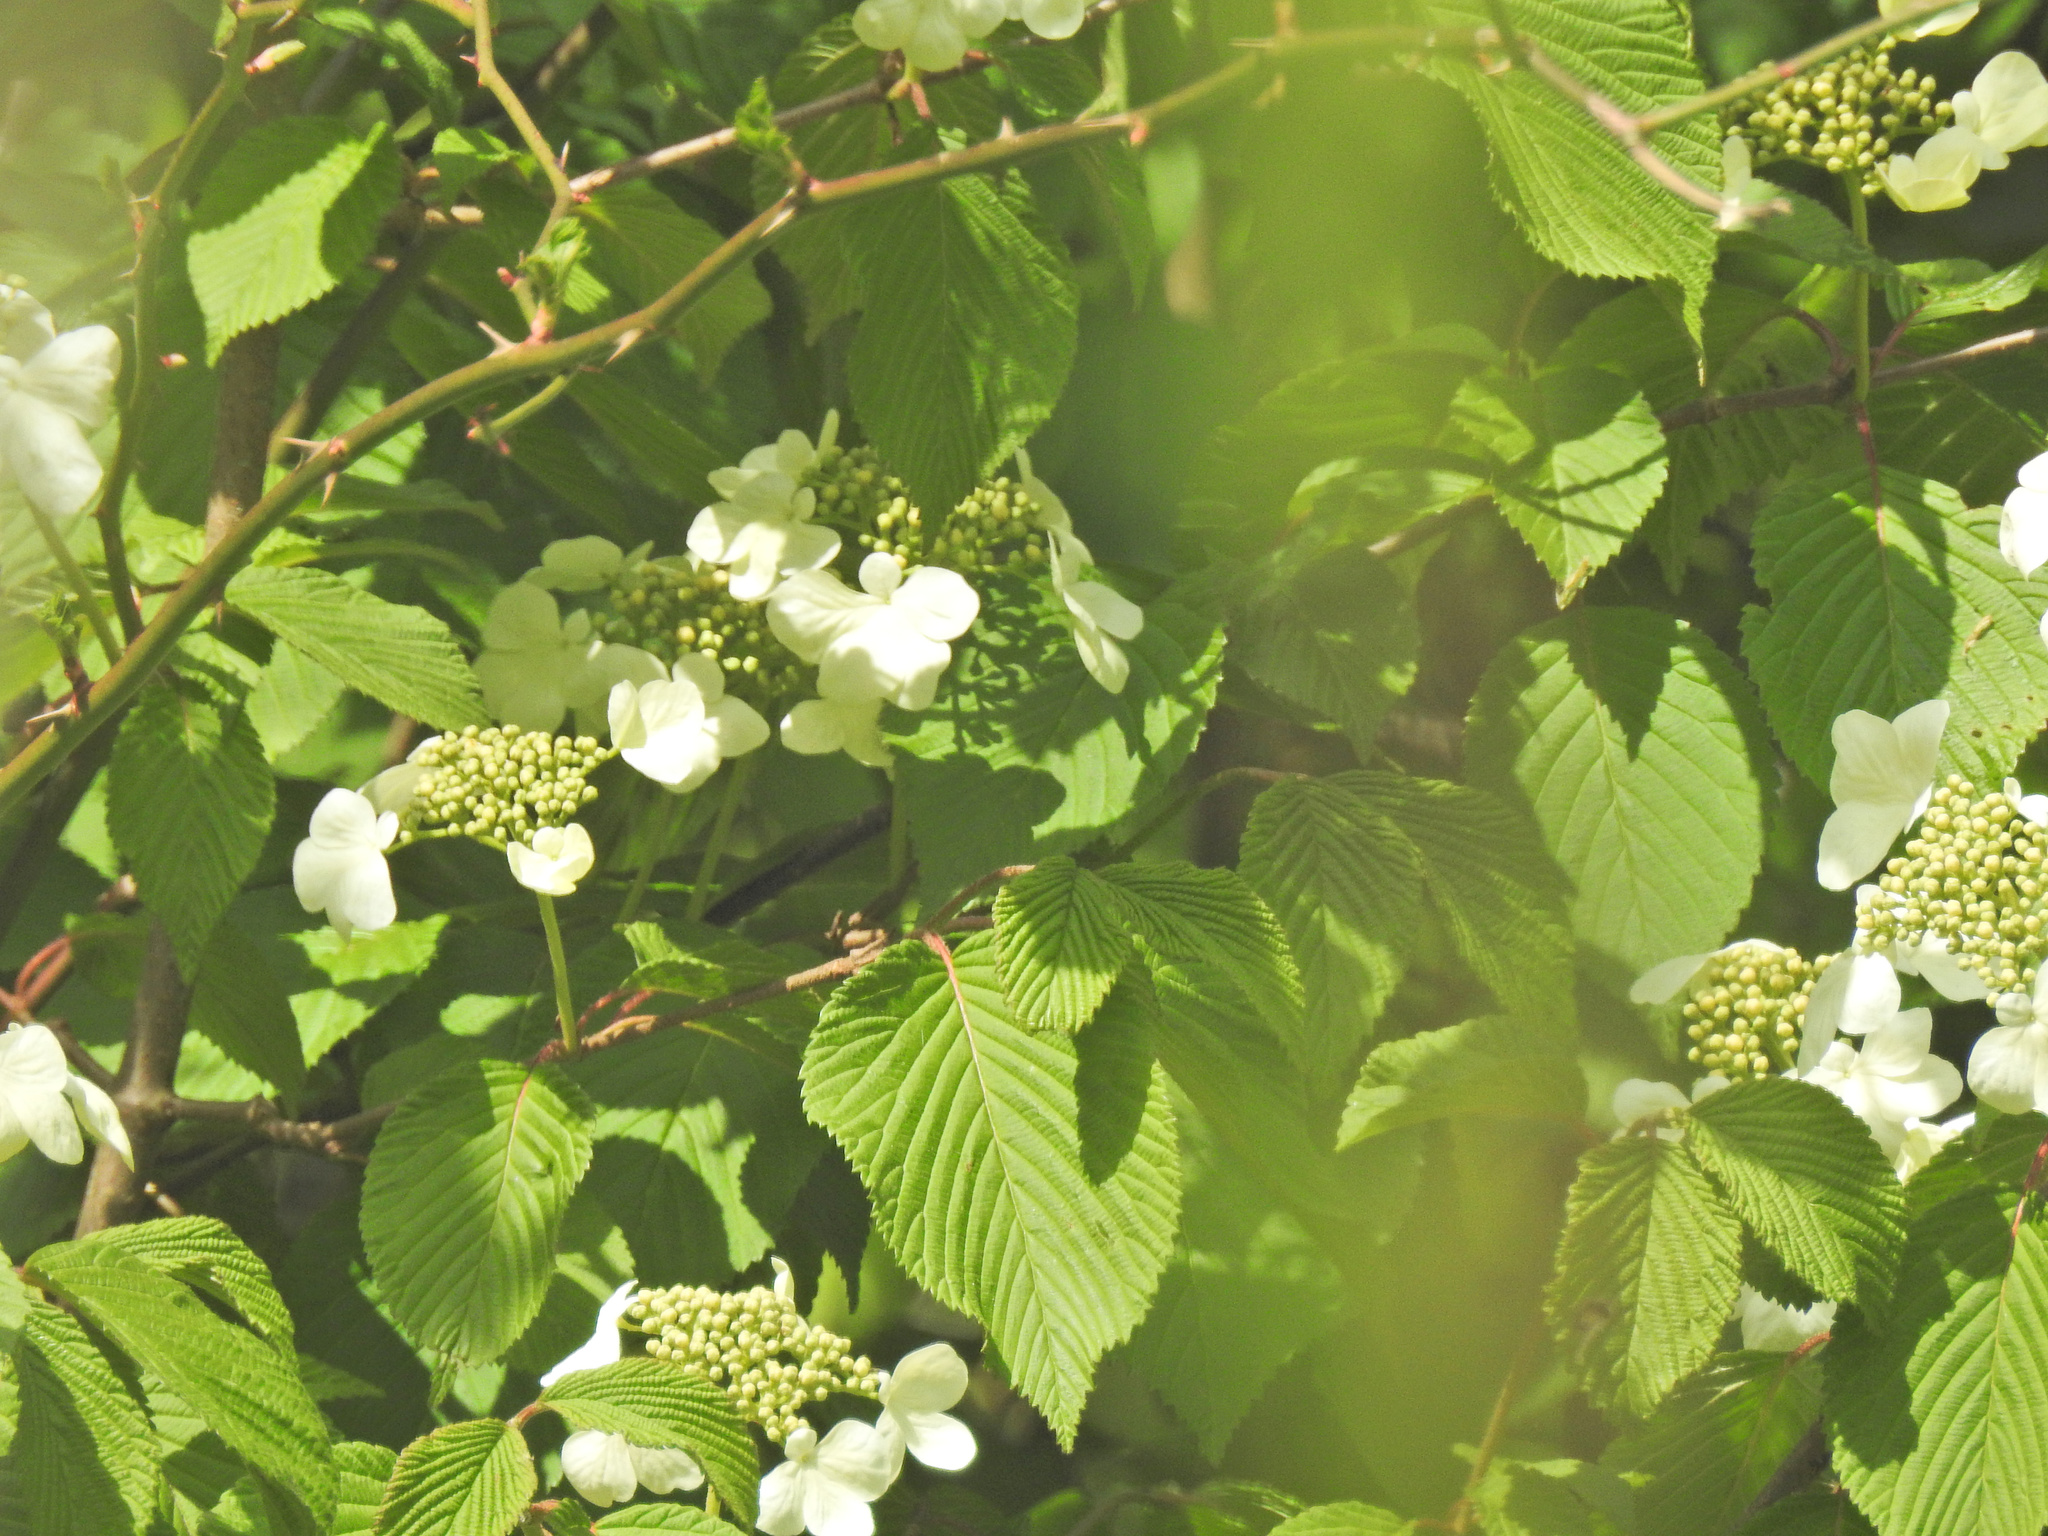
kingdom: Plantae
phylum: Tracheophyta
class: Magnoliopsida
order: Dipsacales
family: Viburnaceae
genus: Viburnum
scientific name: Viburnum plicatum
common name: Japanese snowball
